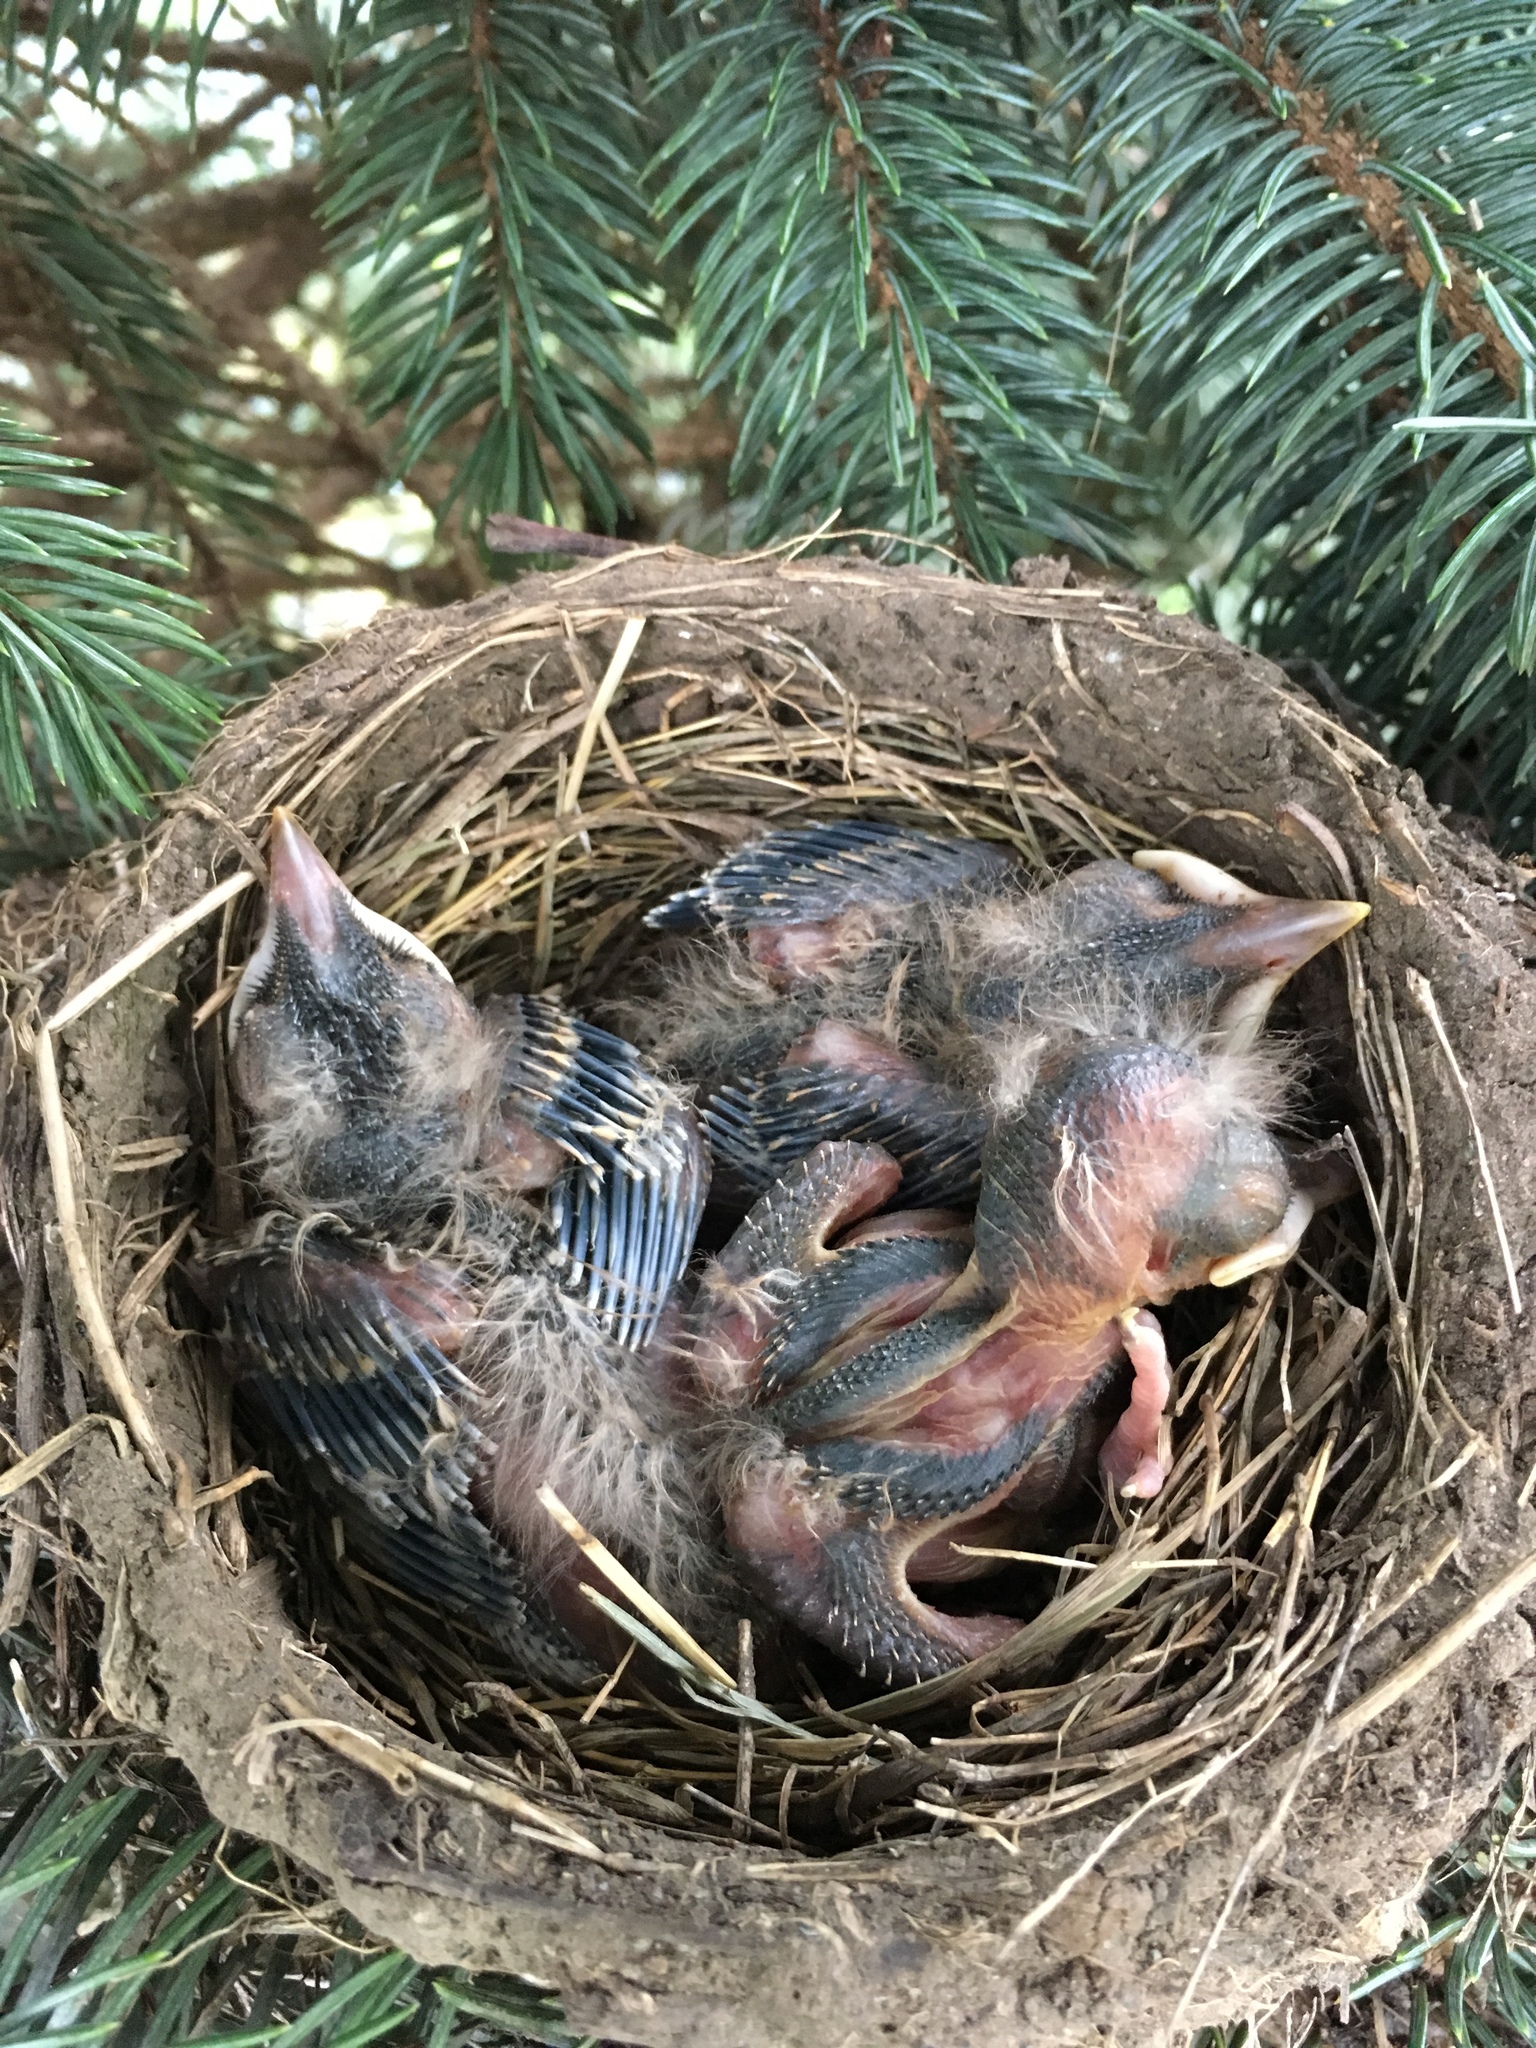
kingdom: Animalia
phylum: Chordata
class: Aves
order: Passeriformes
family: Turdidae
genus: Turdus
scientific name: Turdus migratorius
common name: American robin
